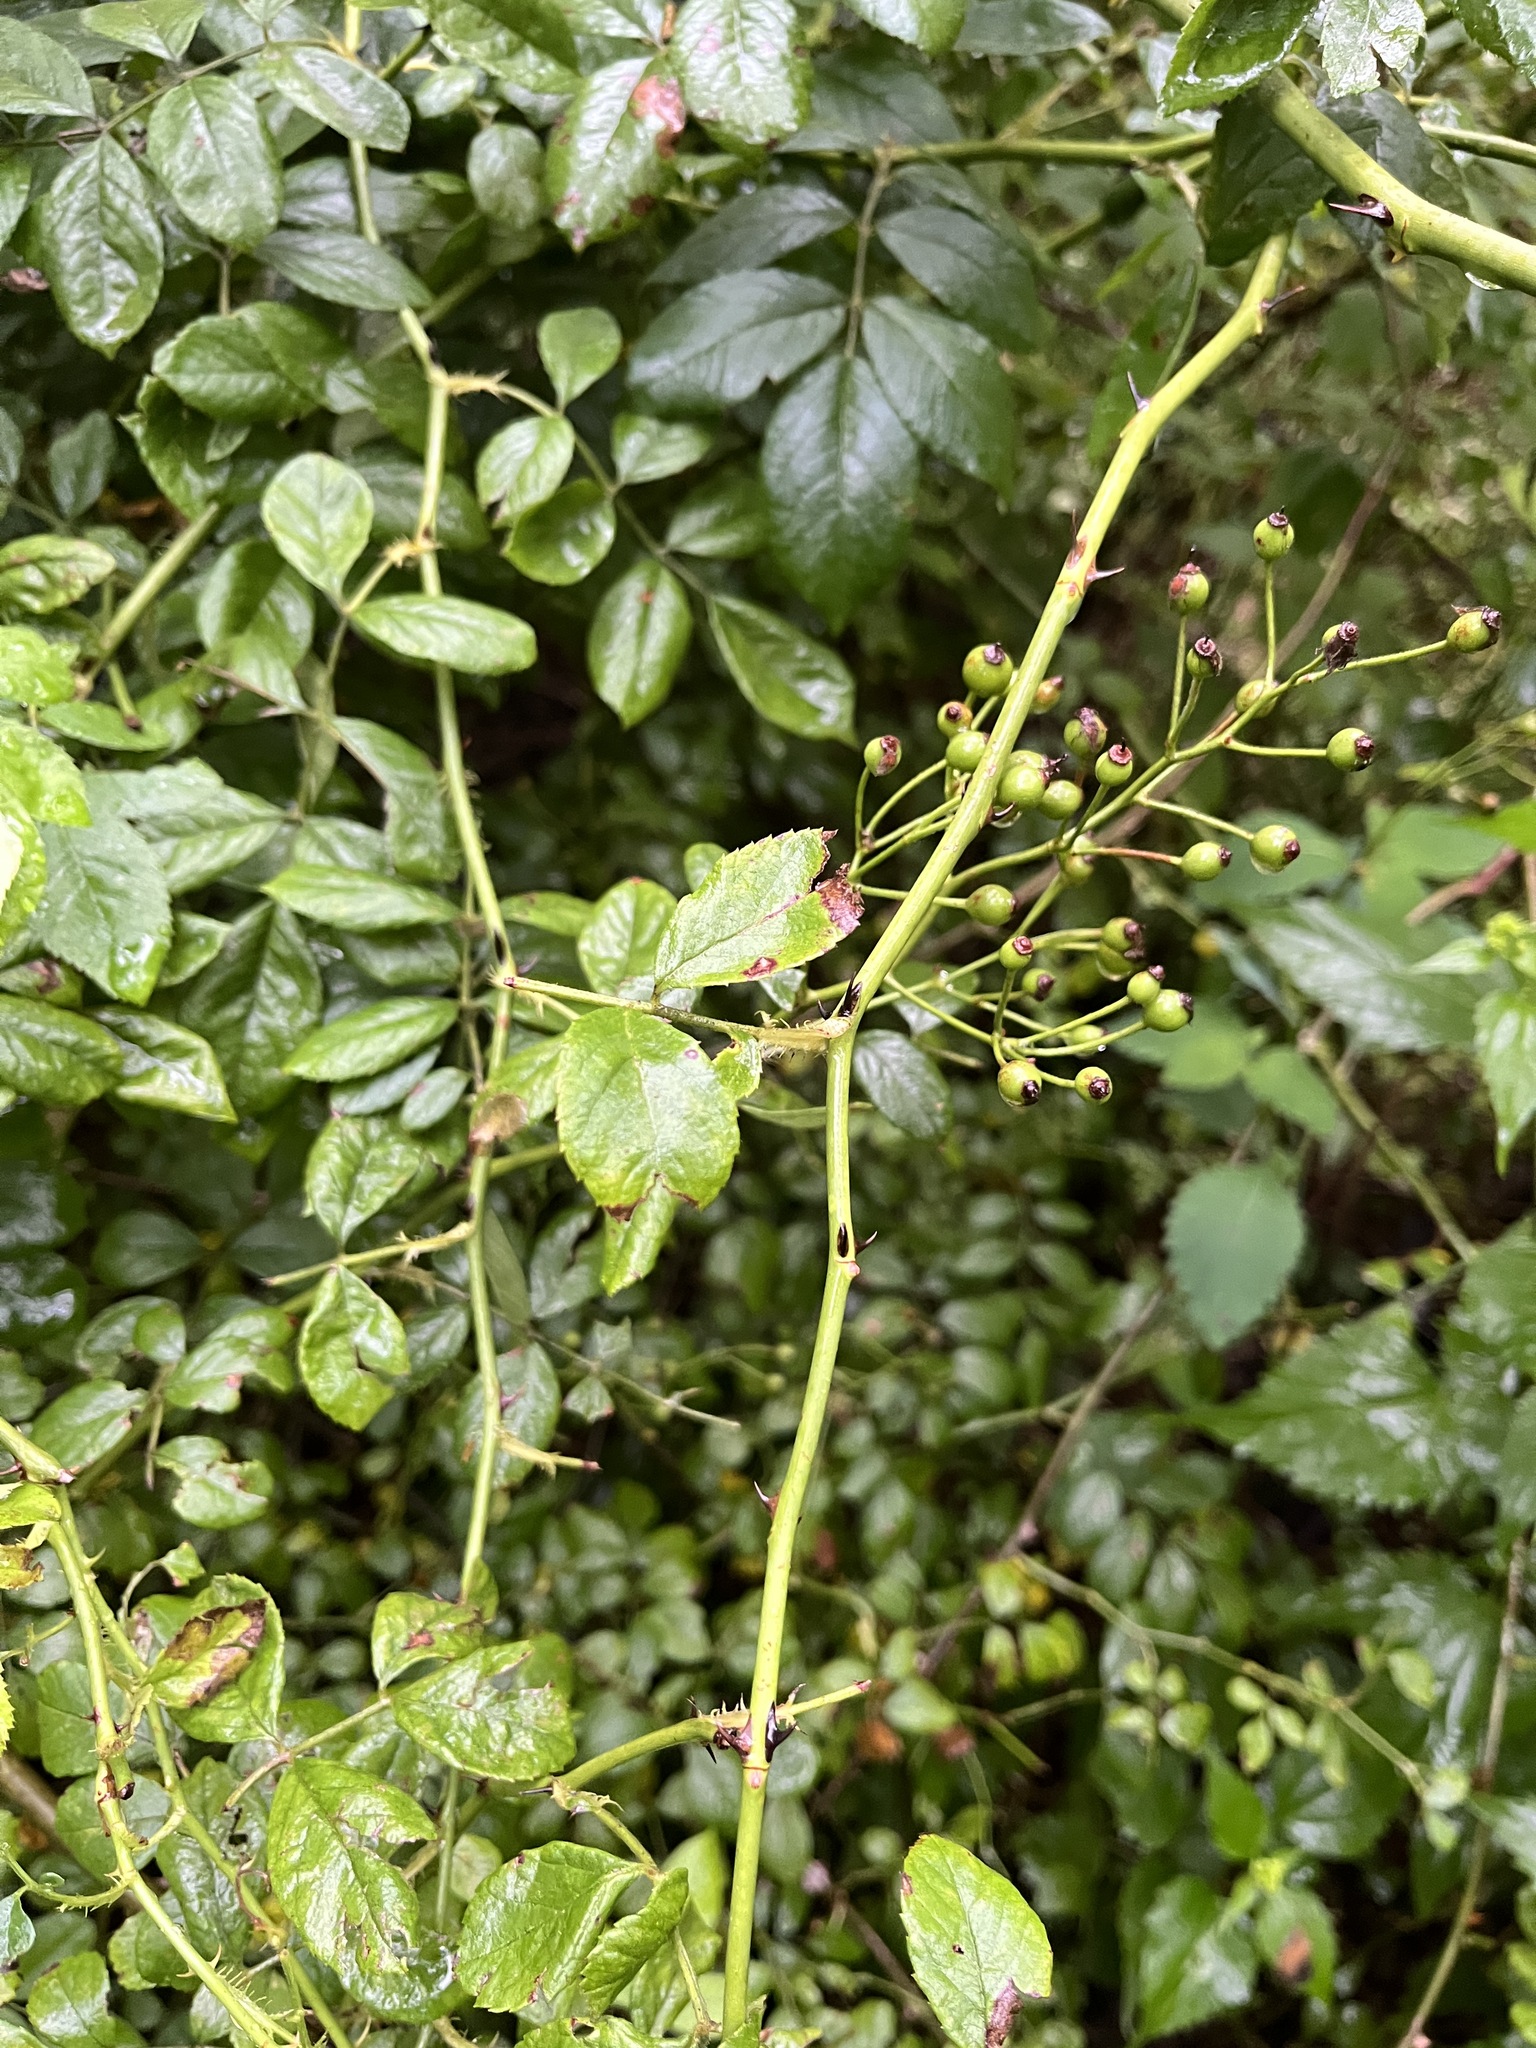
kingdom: Plantae
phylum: Tracheophyta
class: Magnoliopsida
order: Rosales
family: Rosaceae
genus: Rosa
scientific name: Rosa multiflora
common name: Multiflora rose
